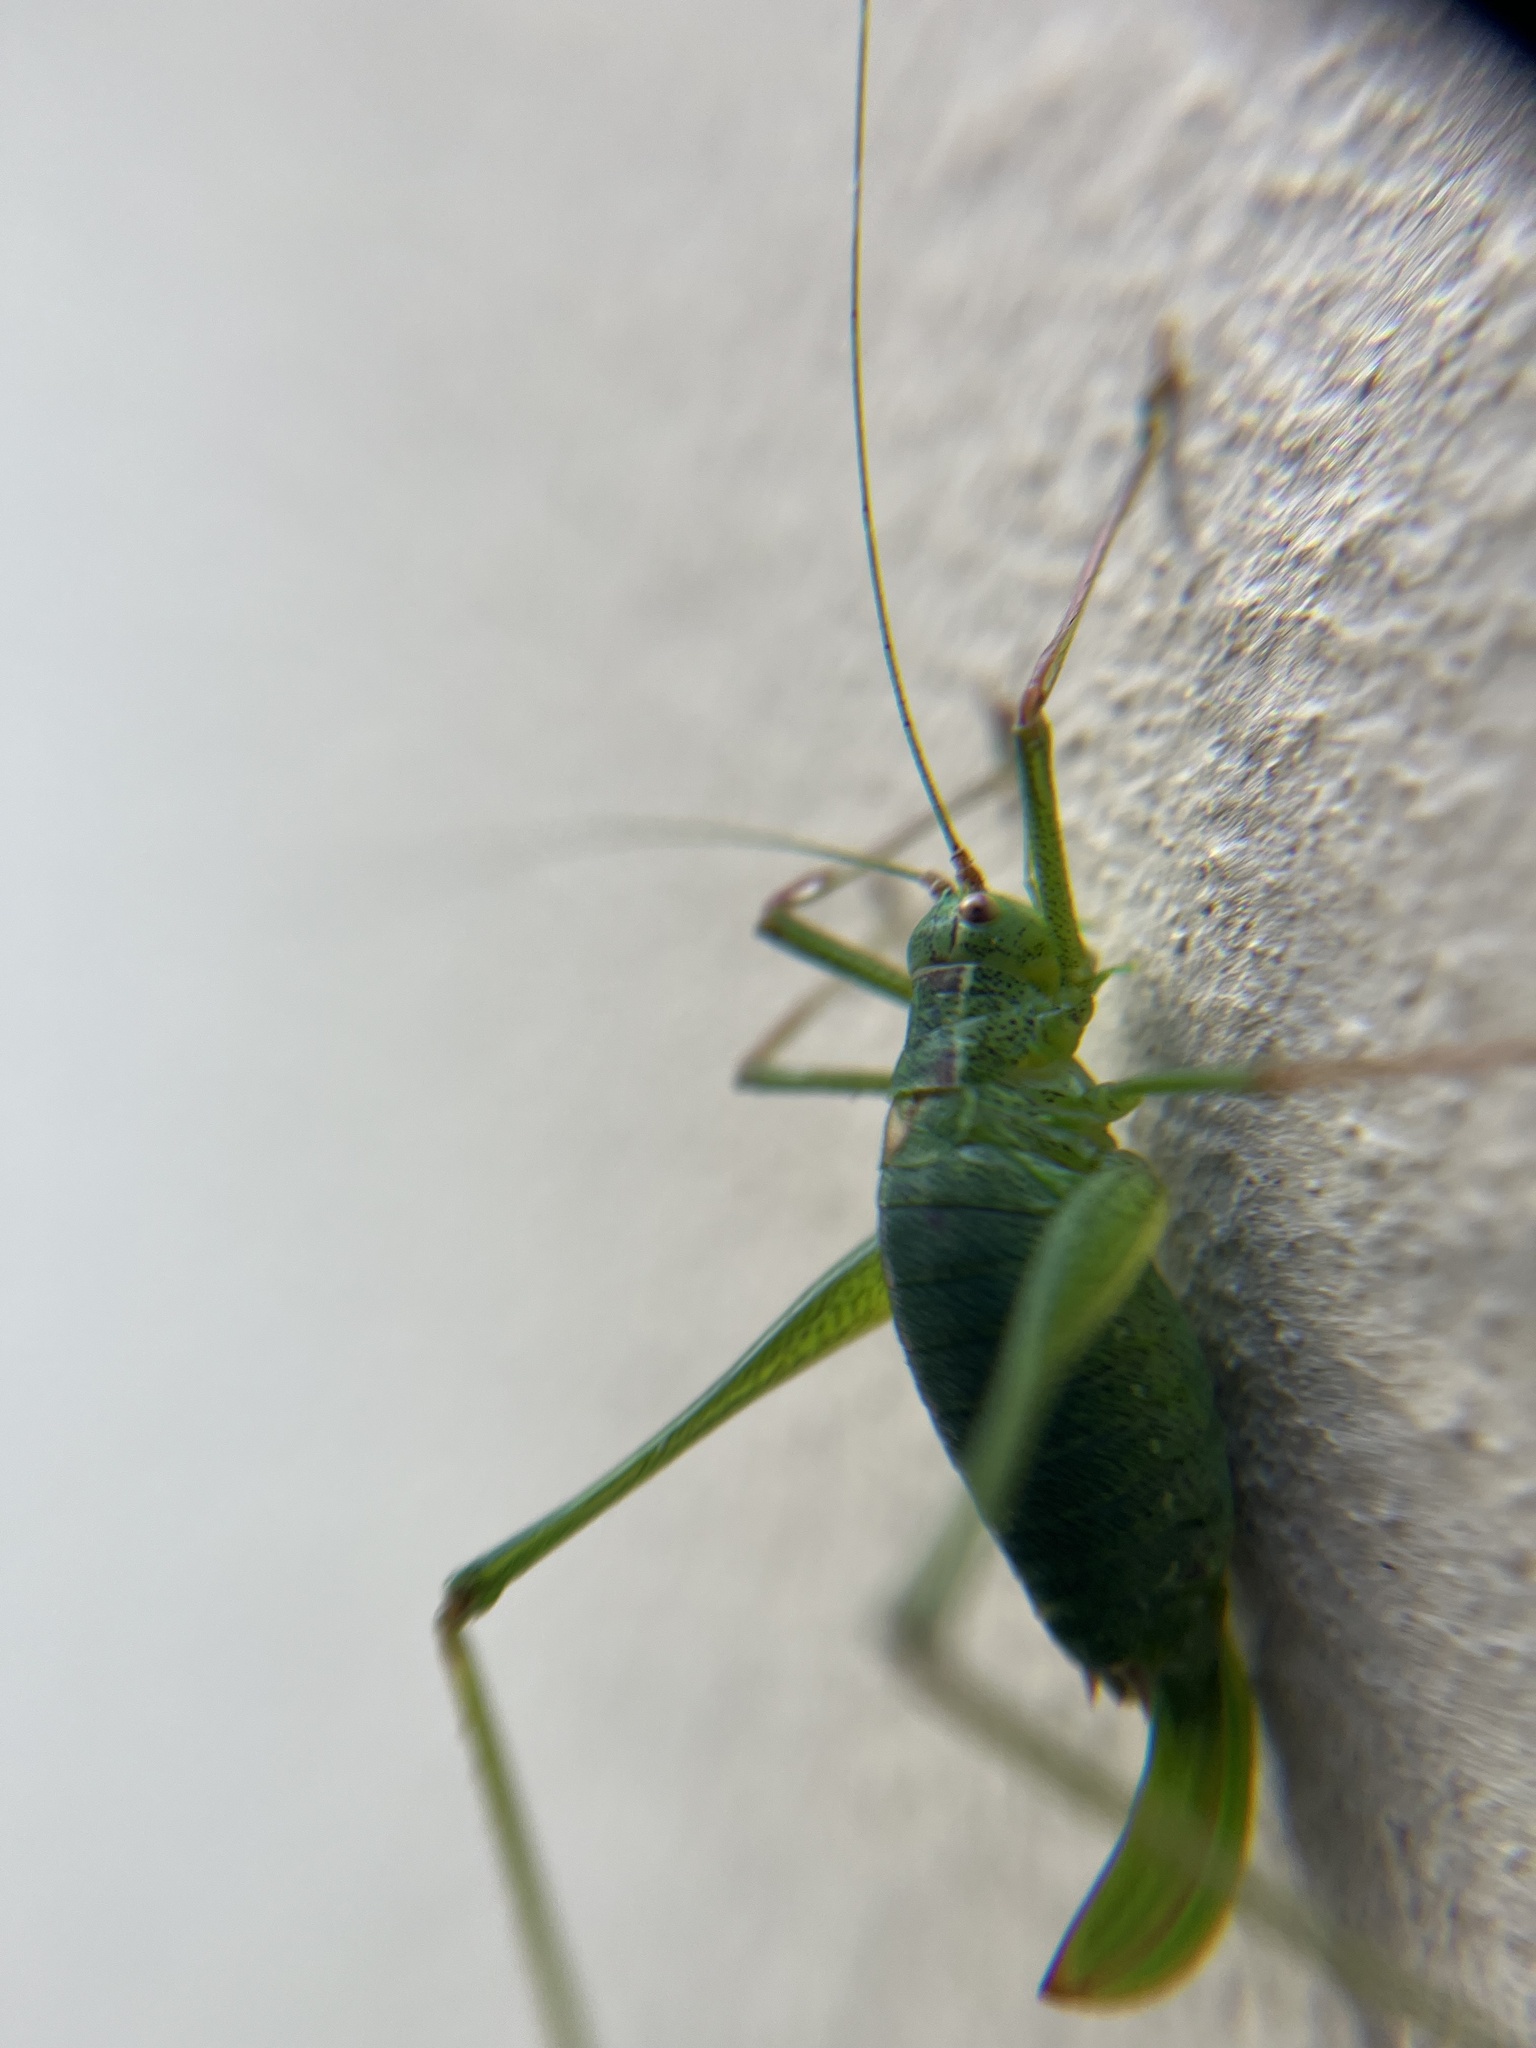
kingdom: Animalia
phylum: Arthropoda
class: Insecta
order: Orthoptera
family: Tettigoniidae
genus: Leptophyes
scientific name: Leptophyes punctatissima
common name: Speckled bush-cricket
